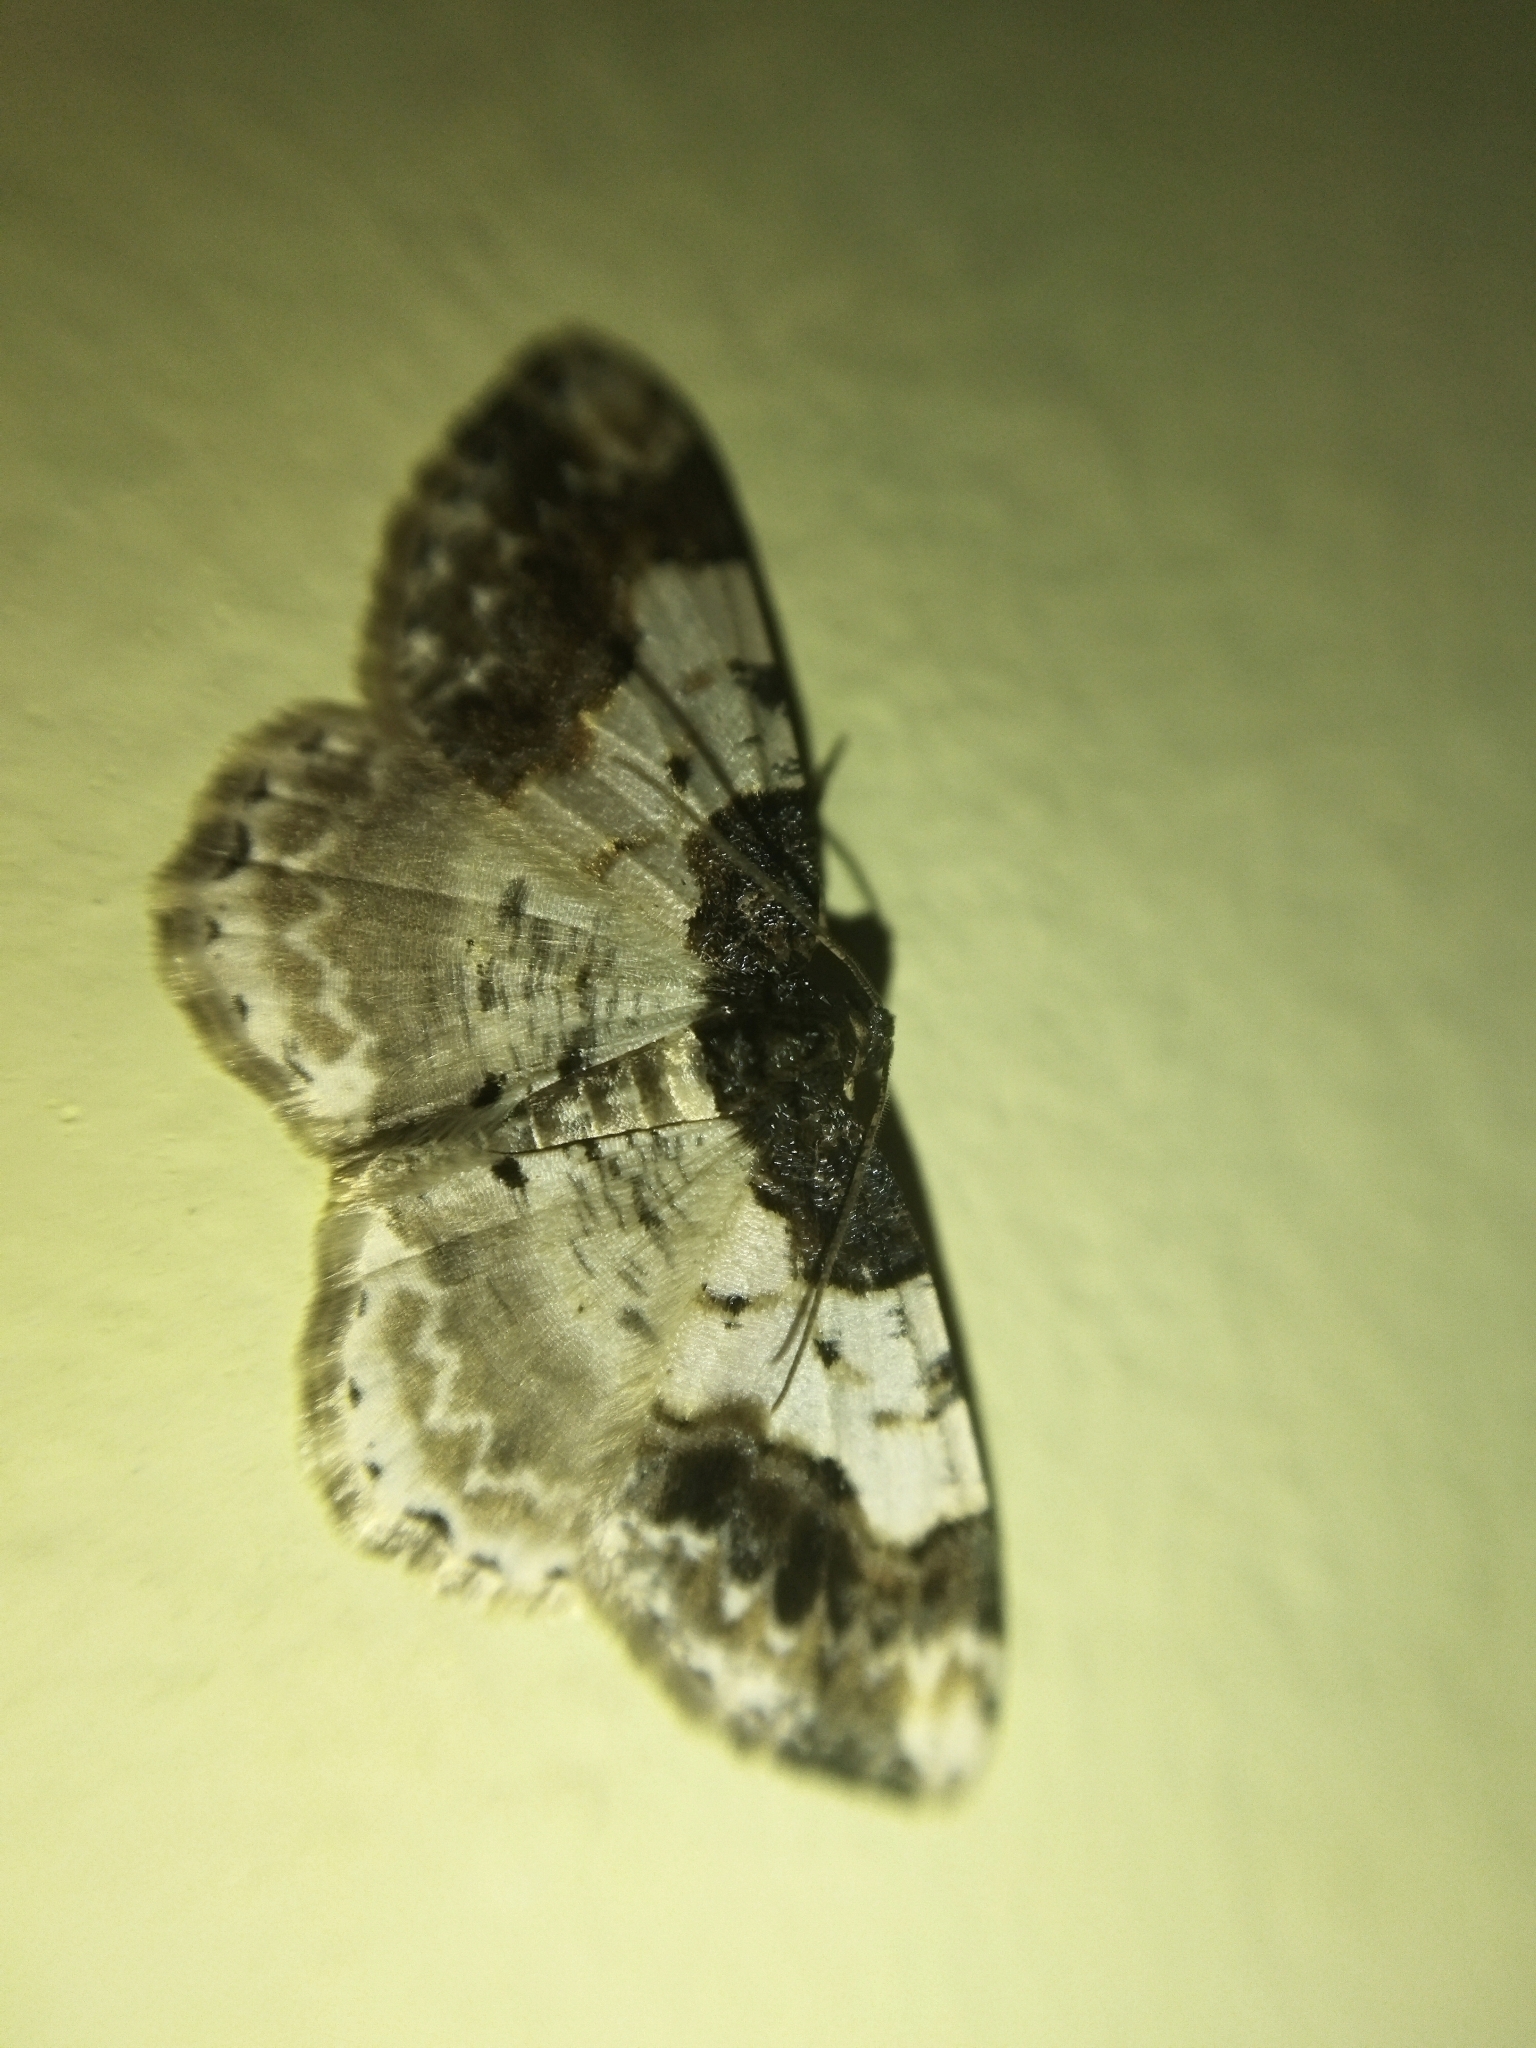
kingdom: Animalia
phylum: Arthropoda
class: Insecta
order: Lepidoptera
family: Geometridae
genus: Ligdia
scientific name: Ligdia adustata
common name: Scorched carpet
